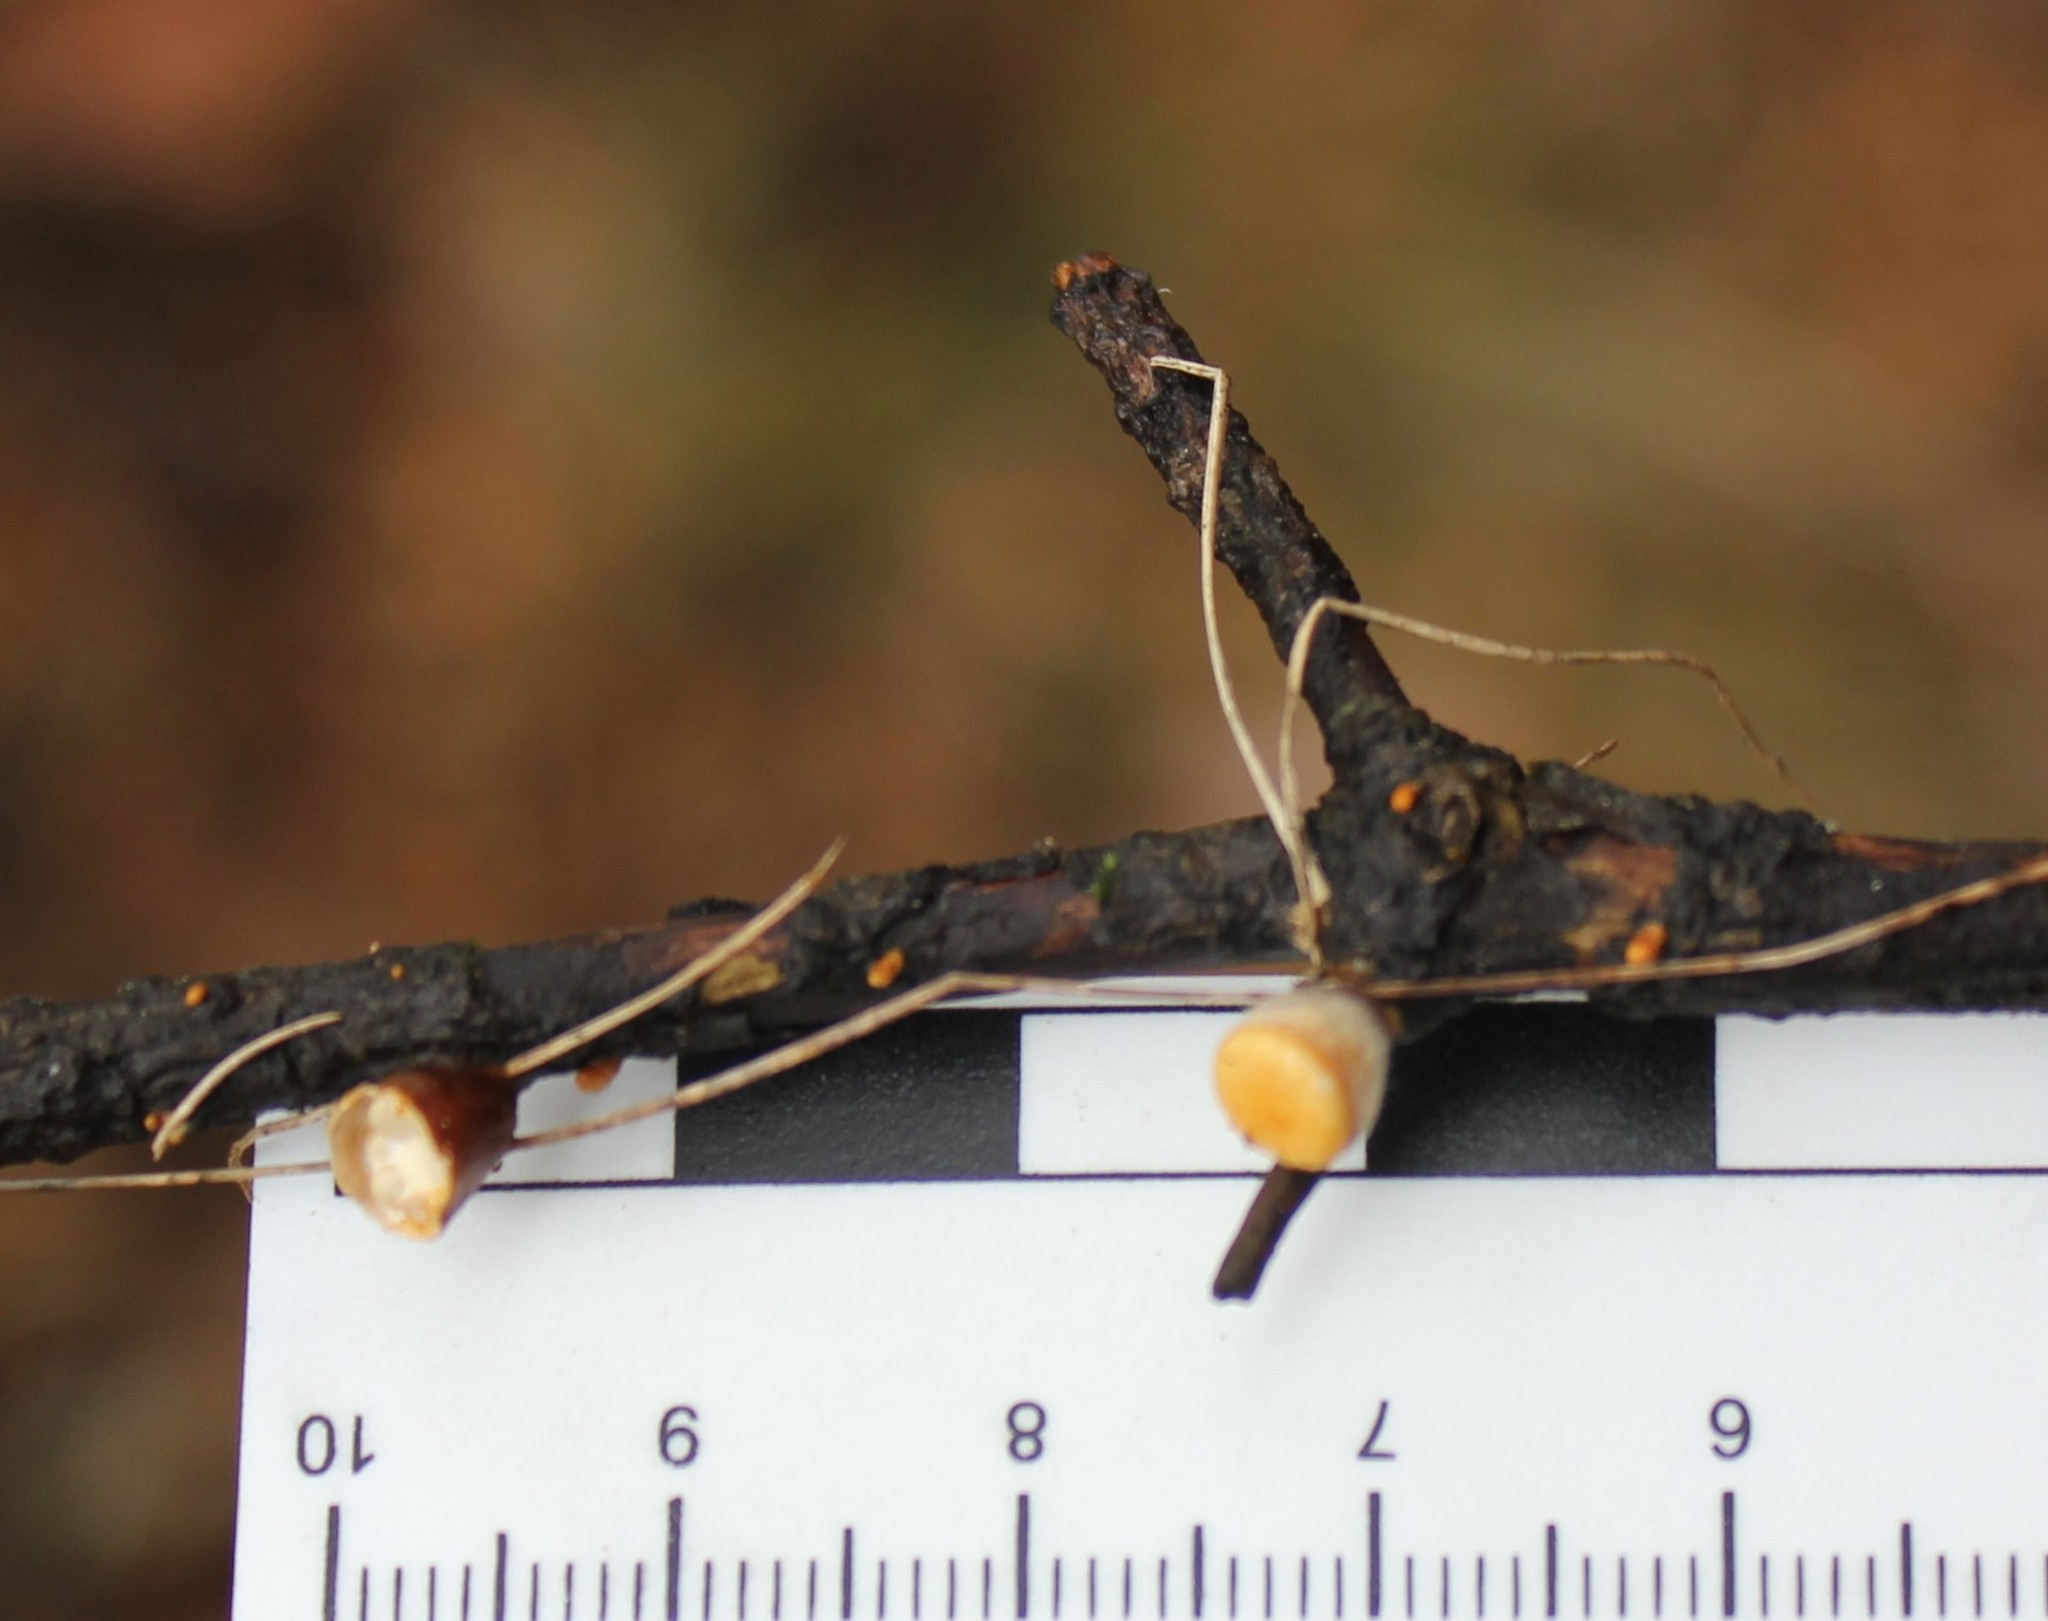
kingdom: Fungi
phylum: Basidiomycota
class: Agaricomycetes
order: Agaricales
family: Nidulariaceae
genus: Crucibulum
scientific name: Crucibulum laeve
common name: Common bird's nest
